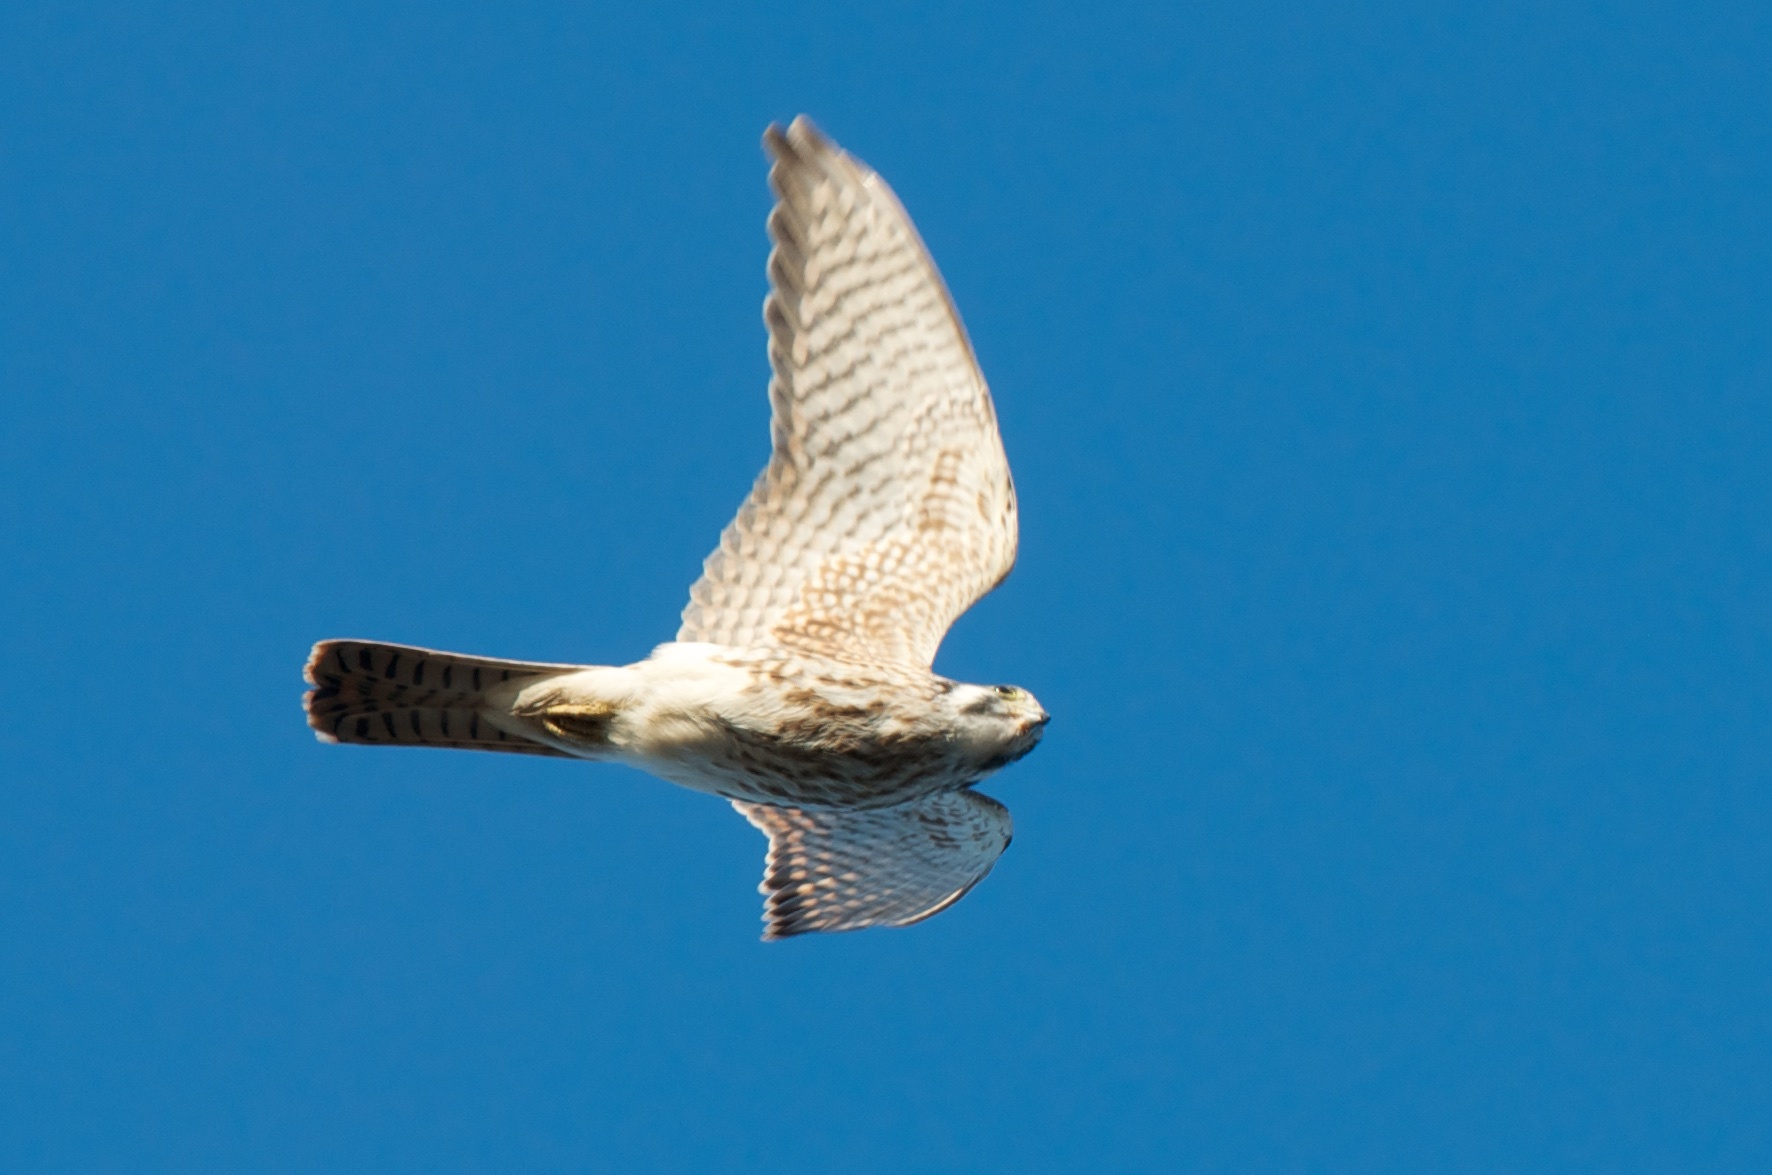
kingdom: Animalia
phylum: Chordata
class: Aves
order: Falconiformes
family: Falconidae
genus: Falco
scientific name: Falco sparverius
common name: American kestrel
